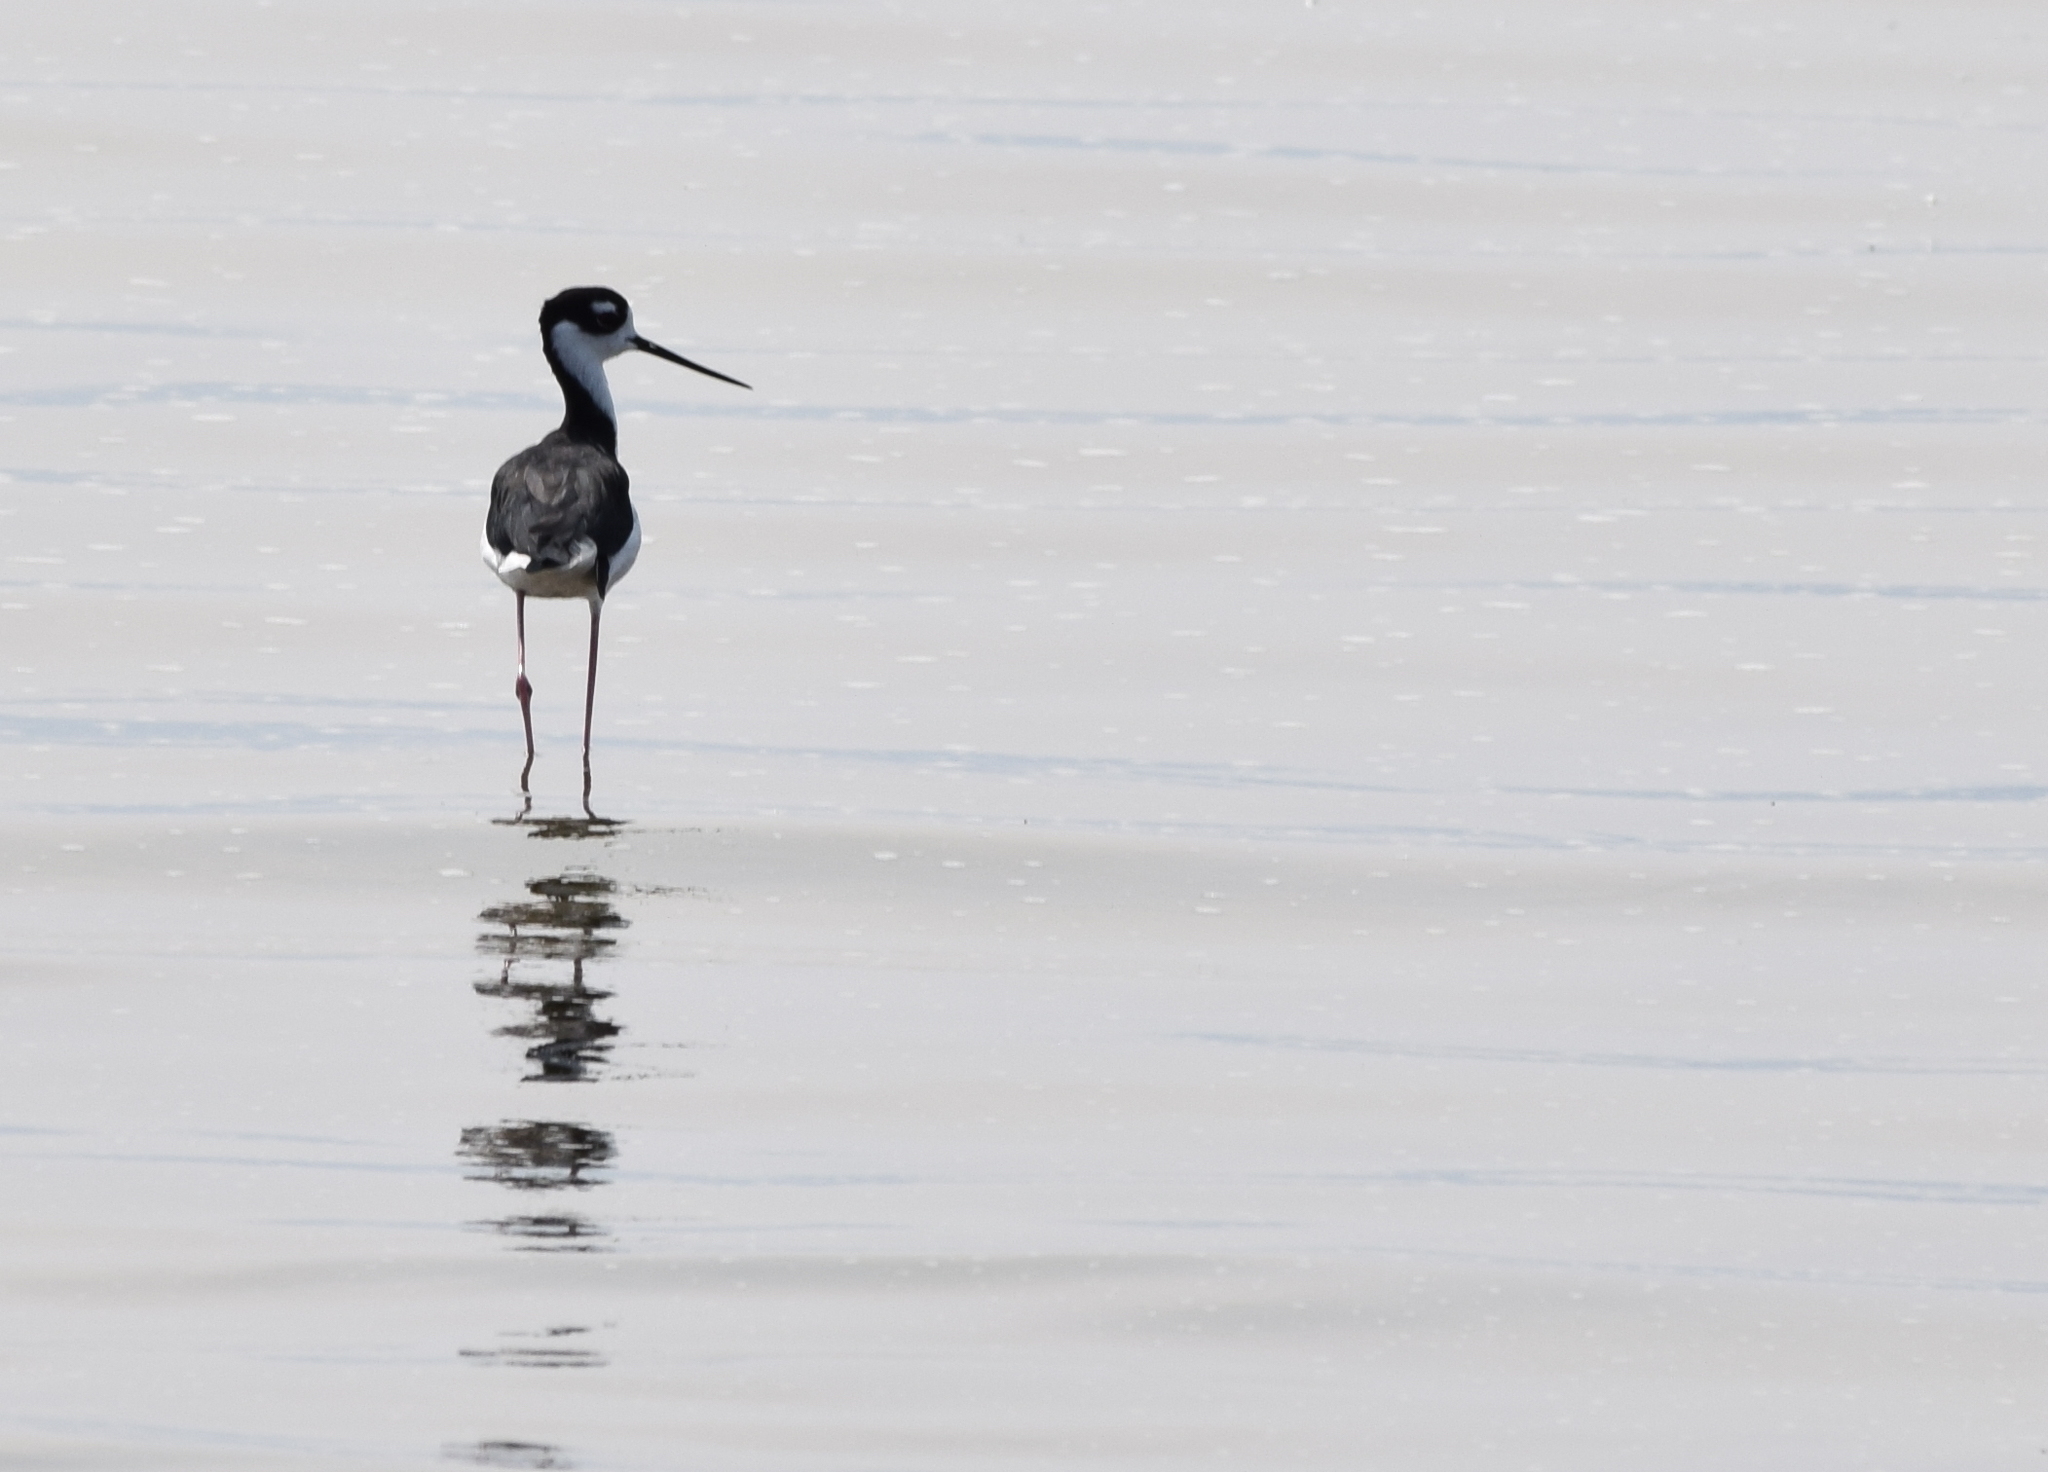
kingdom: Animalia
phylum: Chordata
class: Aves
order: Charadriiformes
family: Recurvirostridae
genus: Himantopus
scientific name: Himantopus mexicanus
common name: Black-necked stilt
